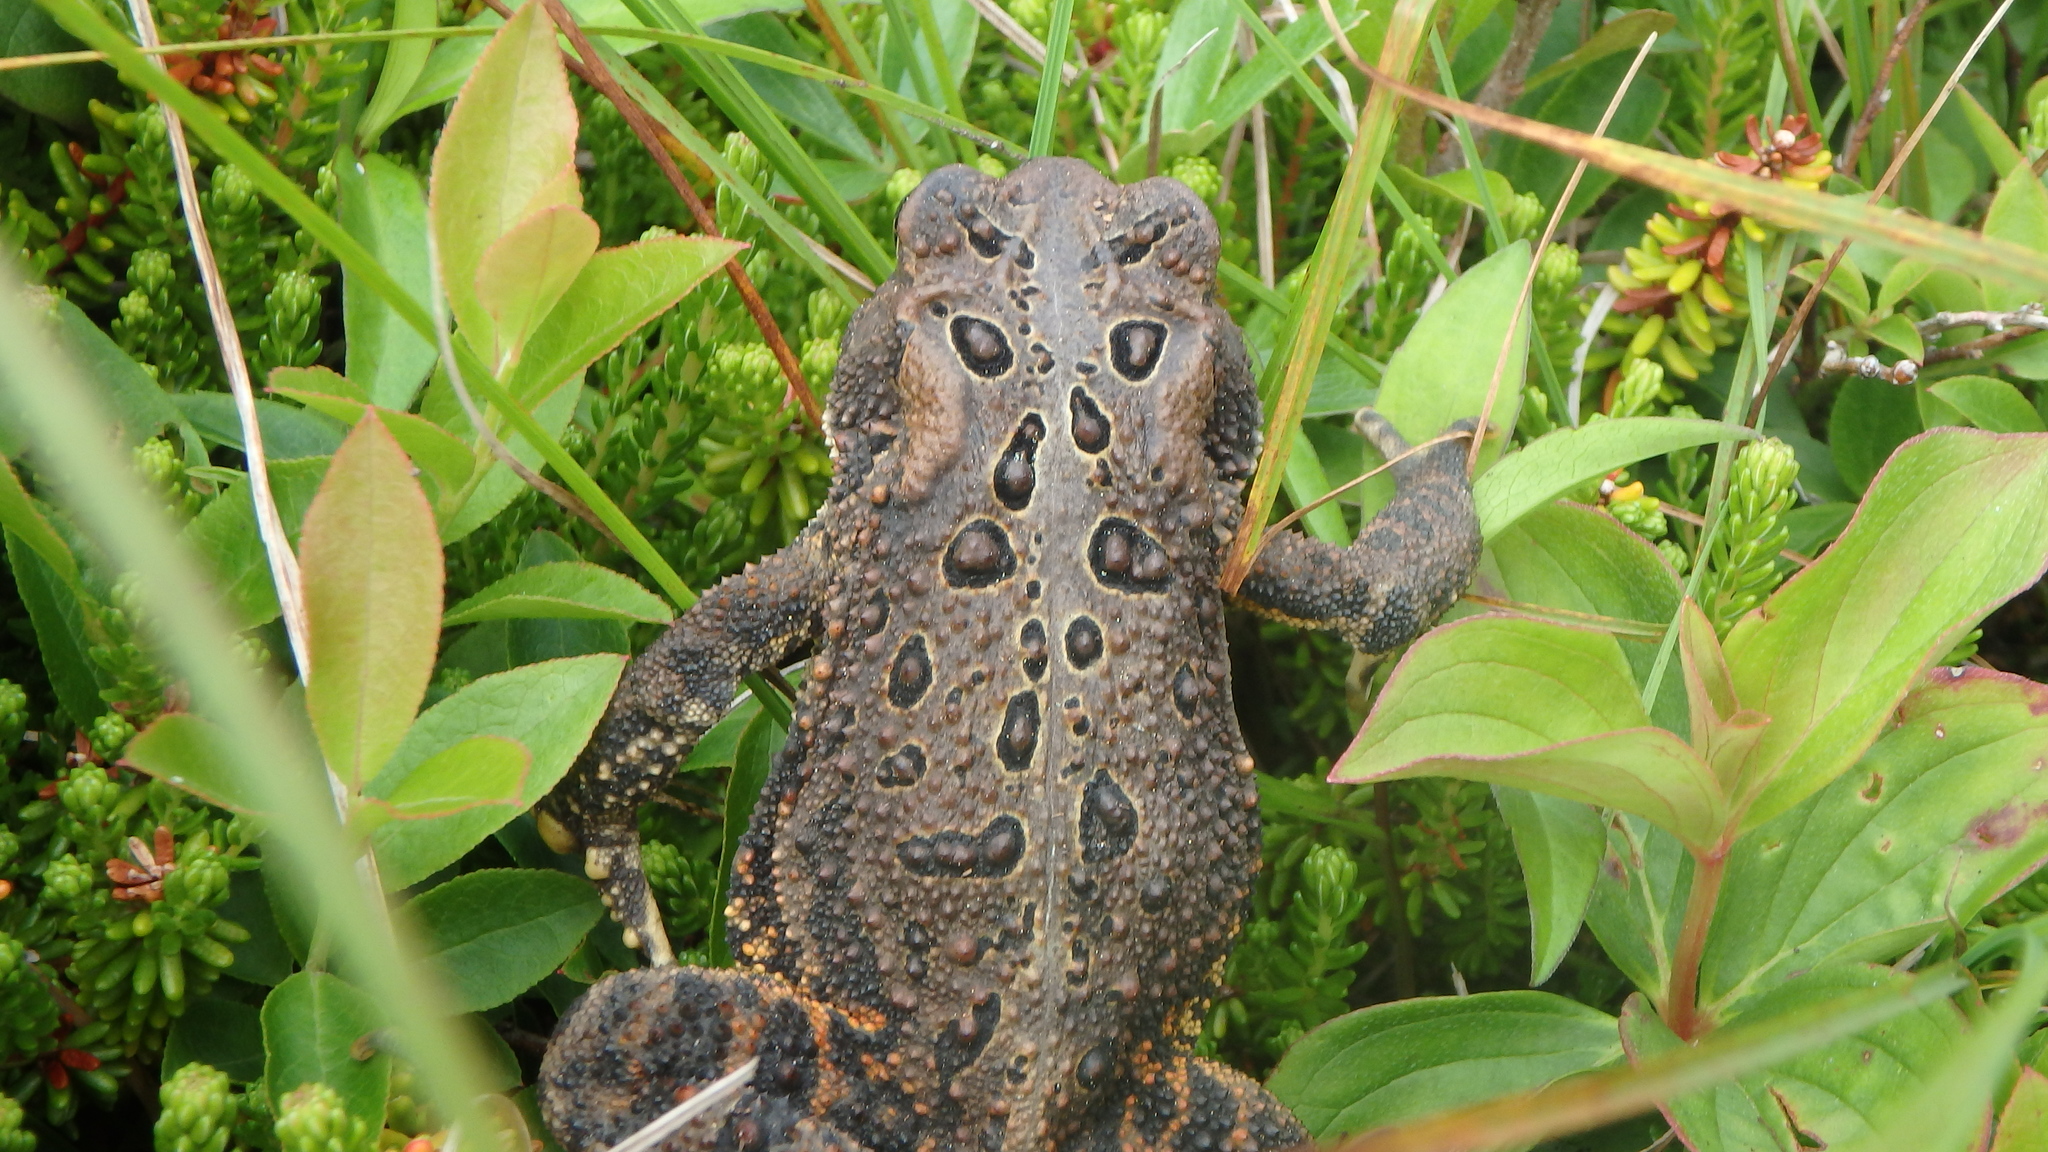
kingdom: Animalia
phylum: Chordata
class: Amphibia
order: Anura
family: Bufonidae
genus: Anaxyrus
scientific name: Anaxyrus americanus
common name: American toad
